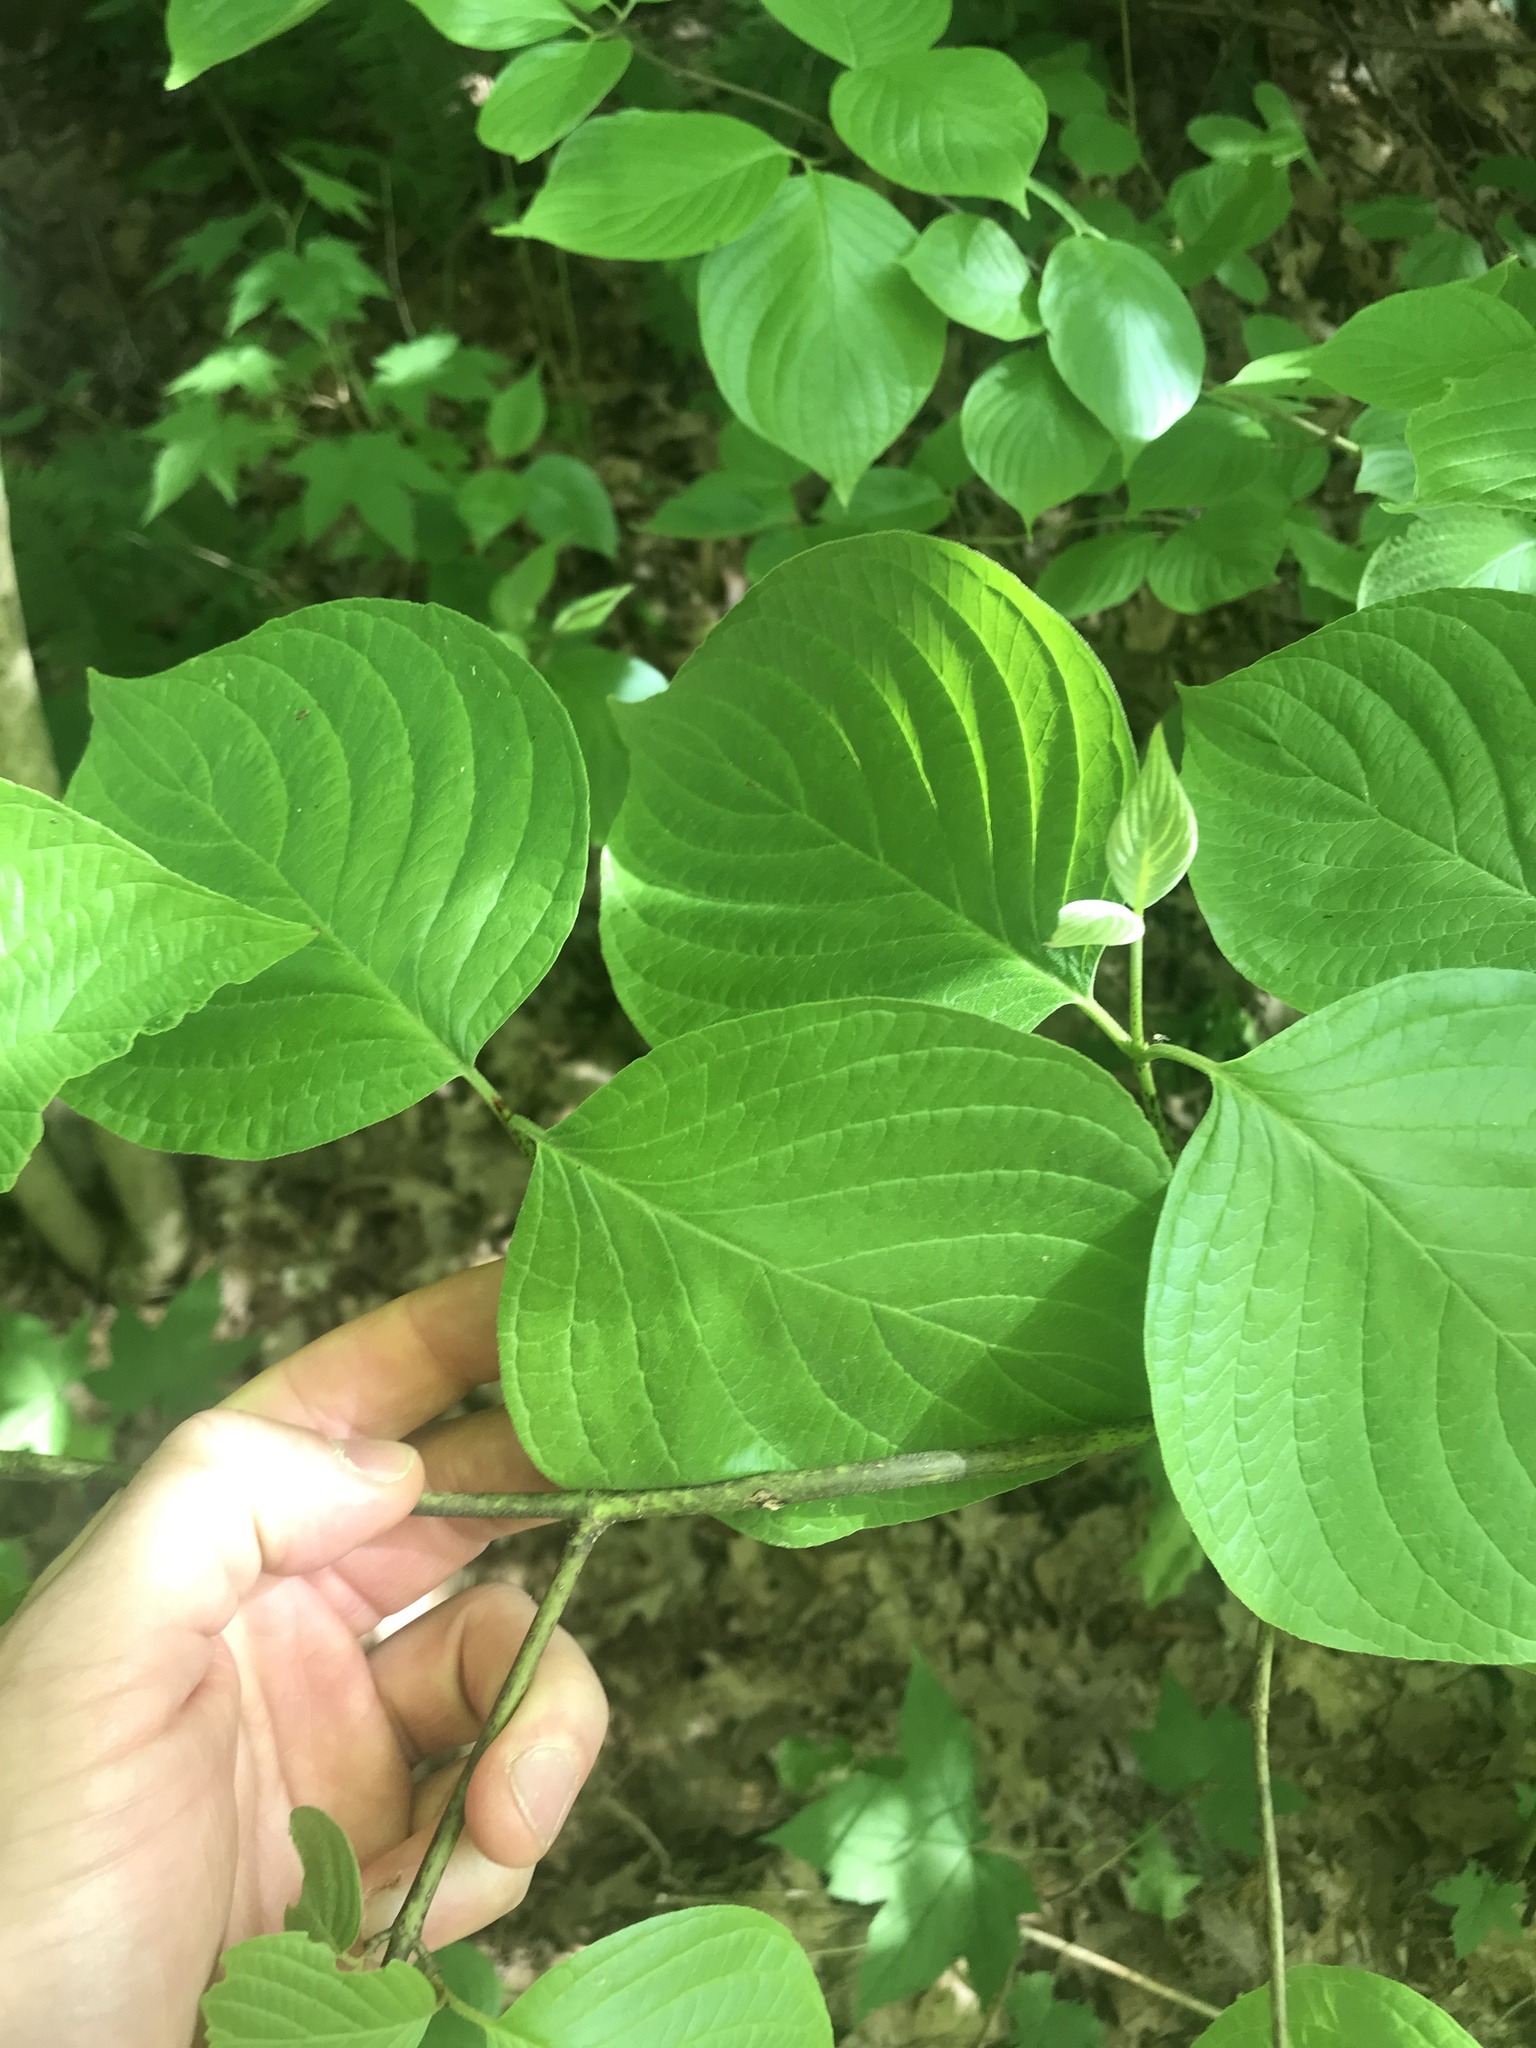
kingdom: Plantae
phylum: Tracheophyta
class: Magnoliopsida
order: Cornales
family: Cornaceae
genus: Cornus
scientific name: Cornus rugosa
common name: Round-leaf dogwood
